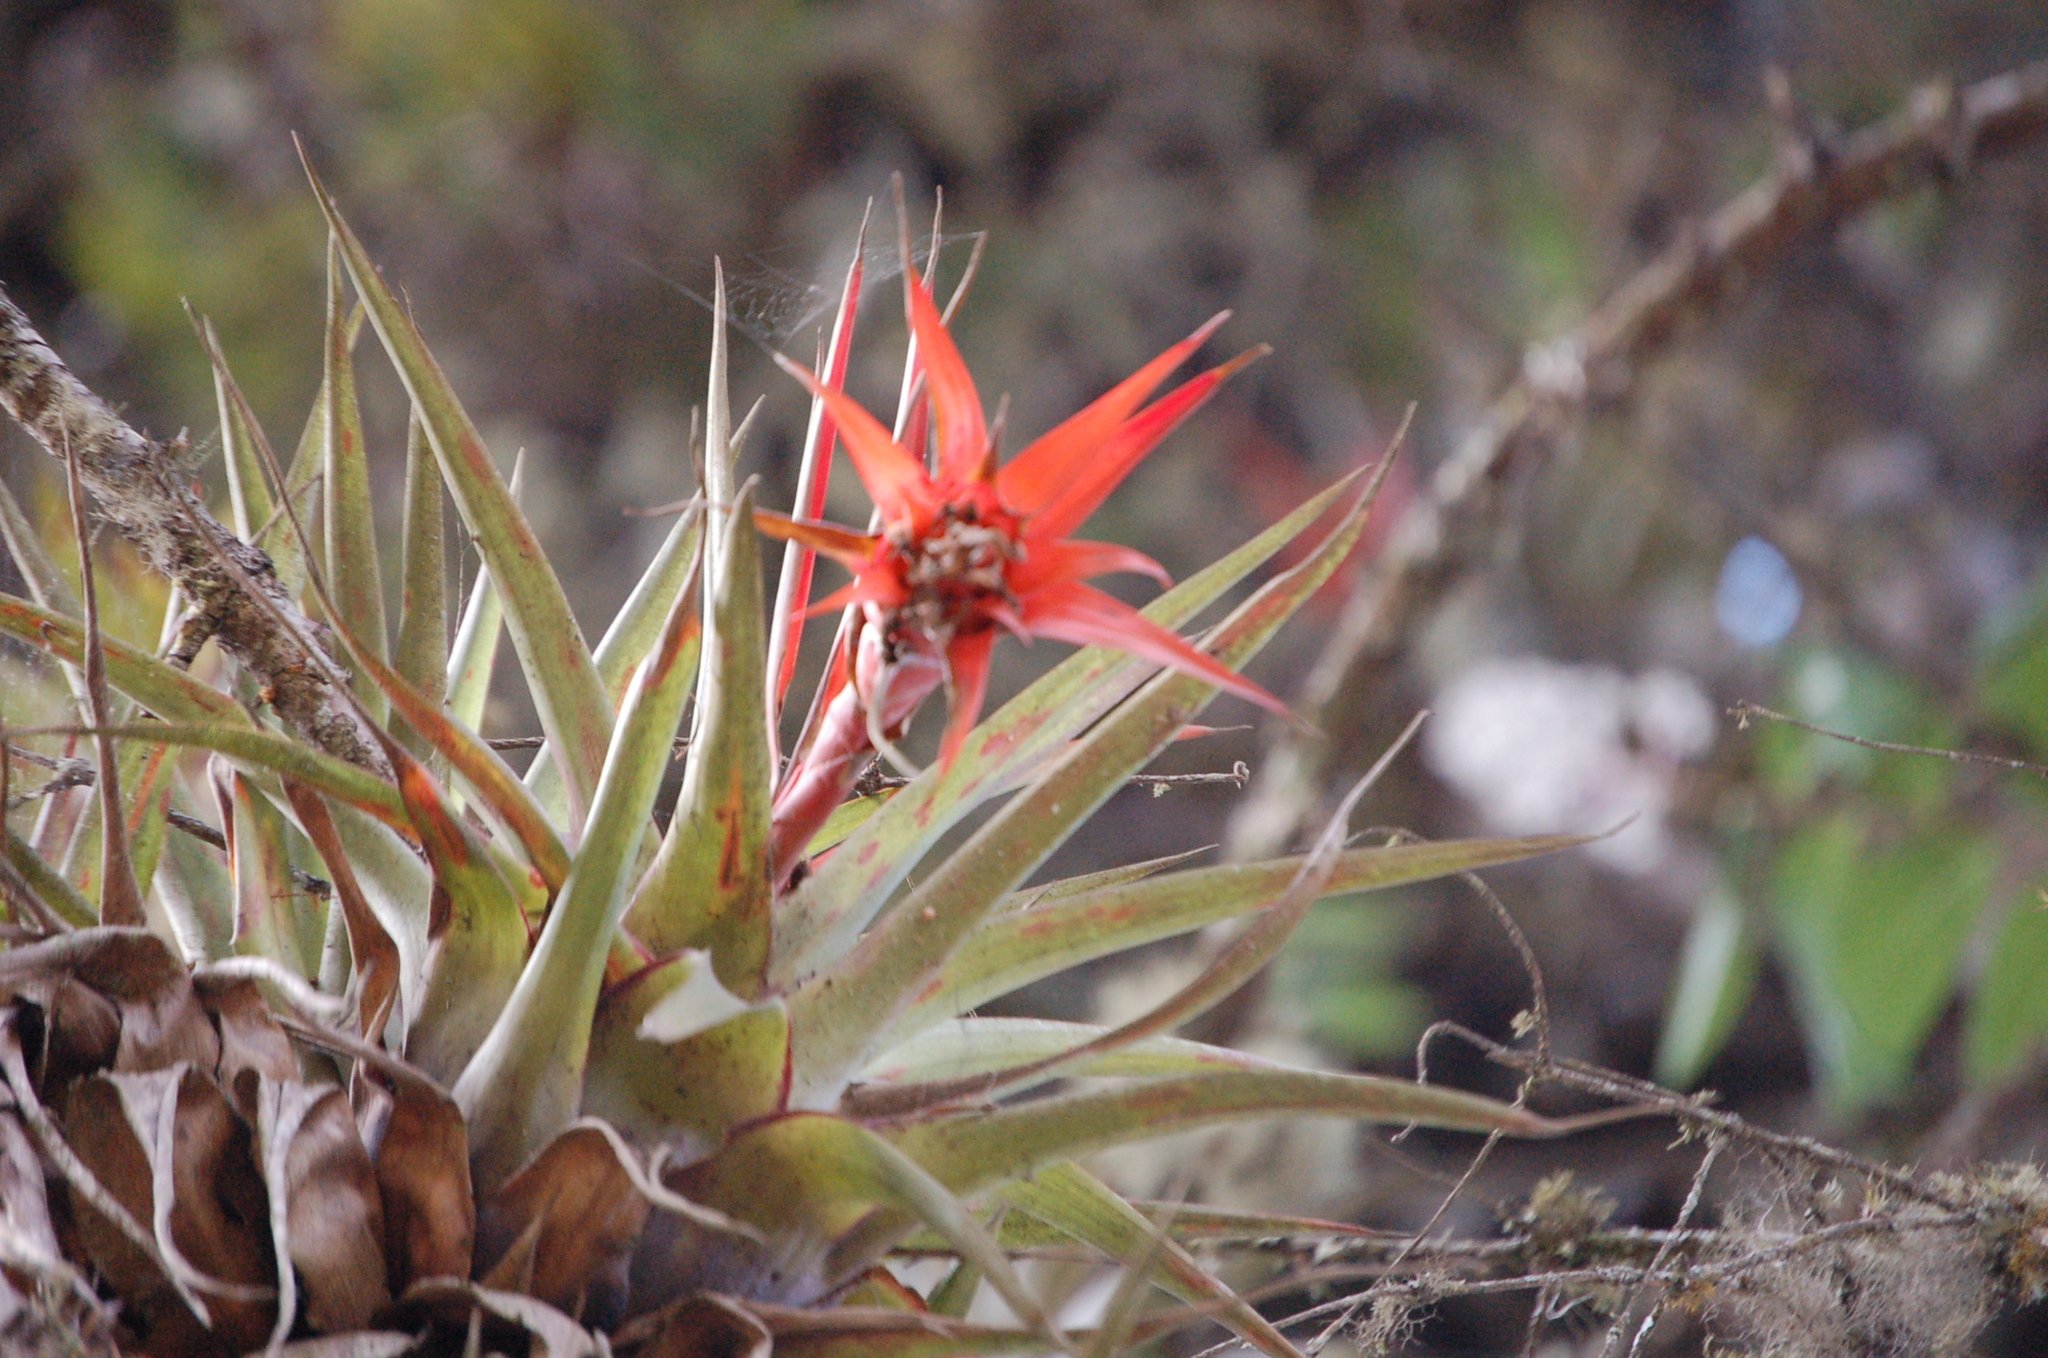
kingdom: Plantae
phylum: Tracheophyta
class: Liliopsida
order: Poales
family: Bromeliaceae
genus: Tillandsia
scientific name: Tillandsia lautneri
